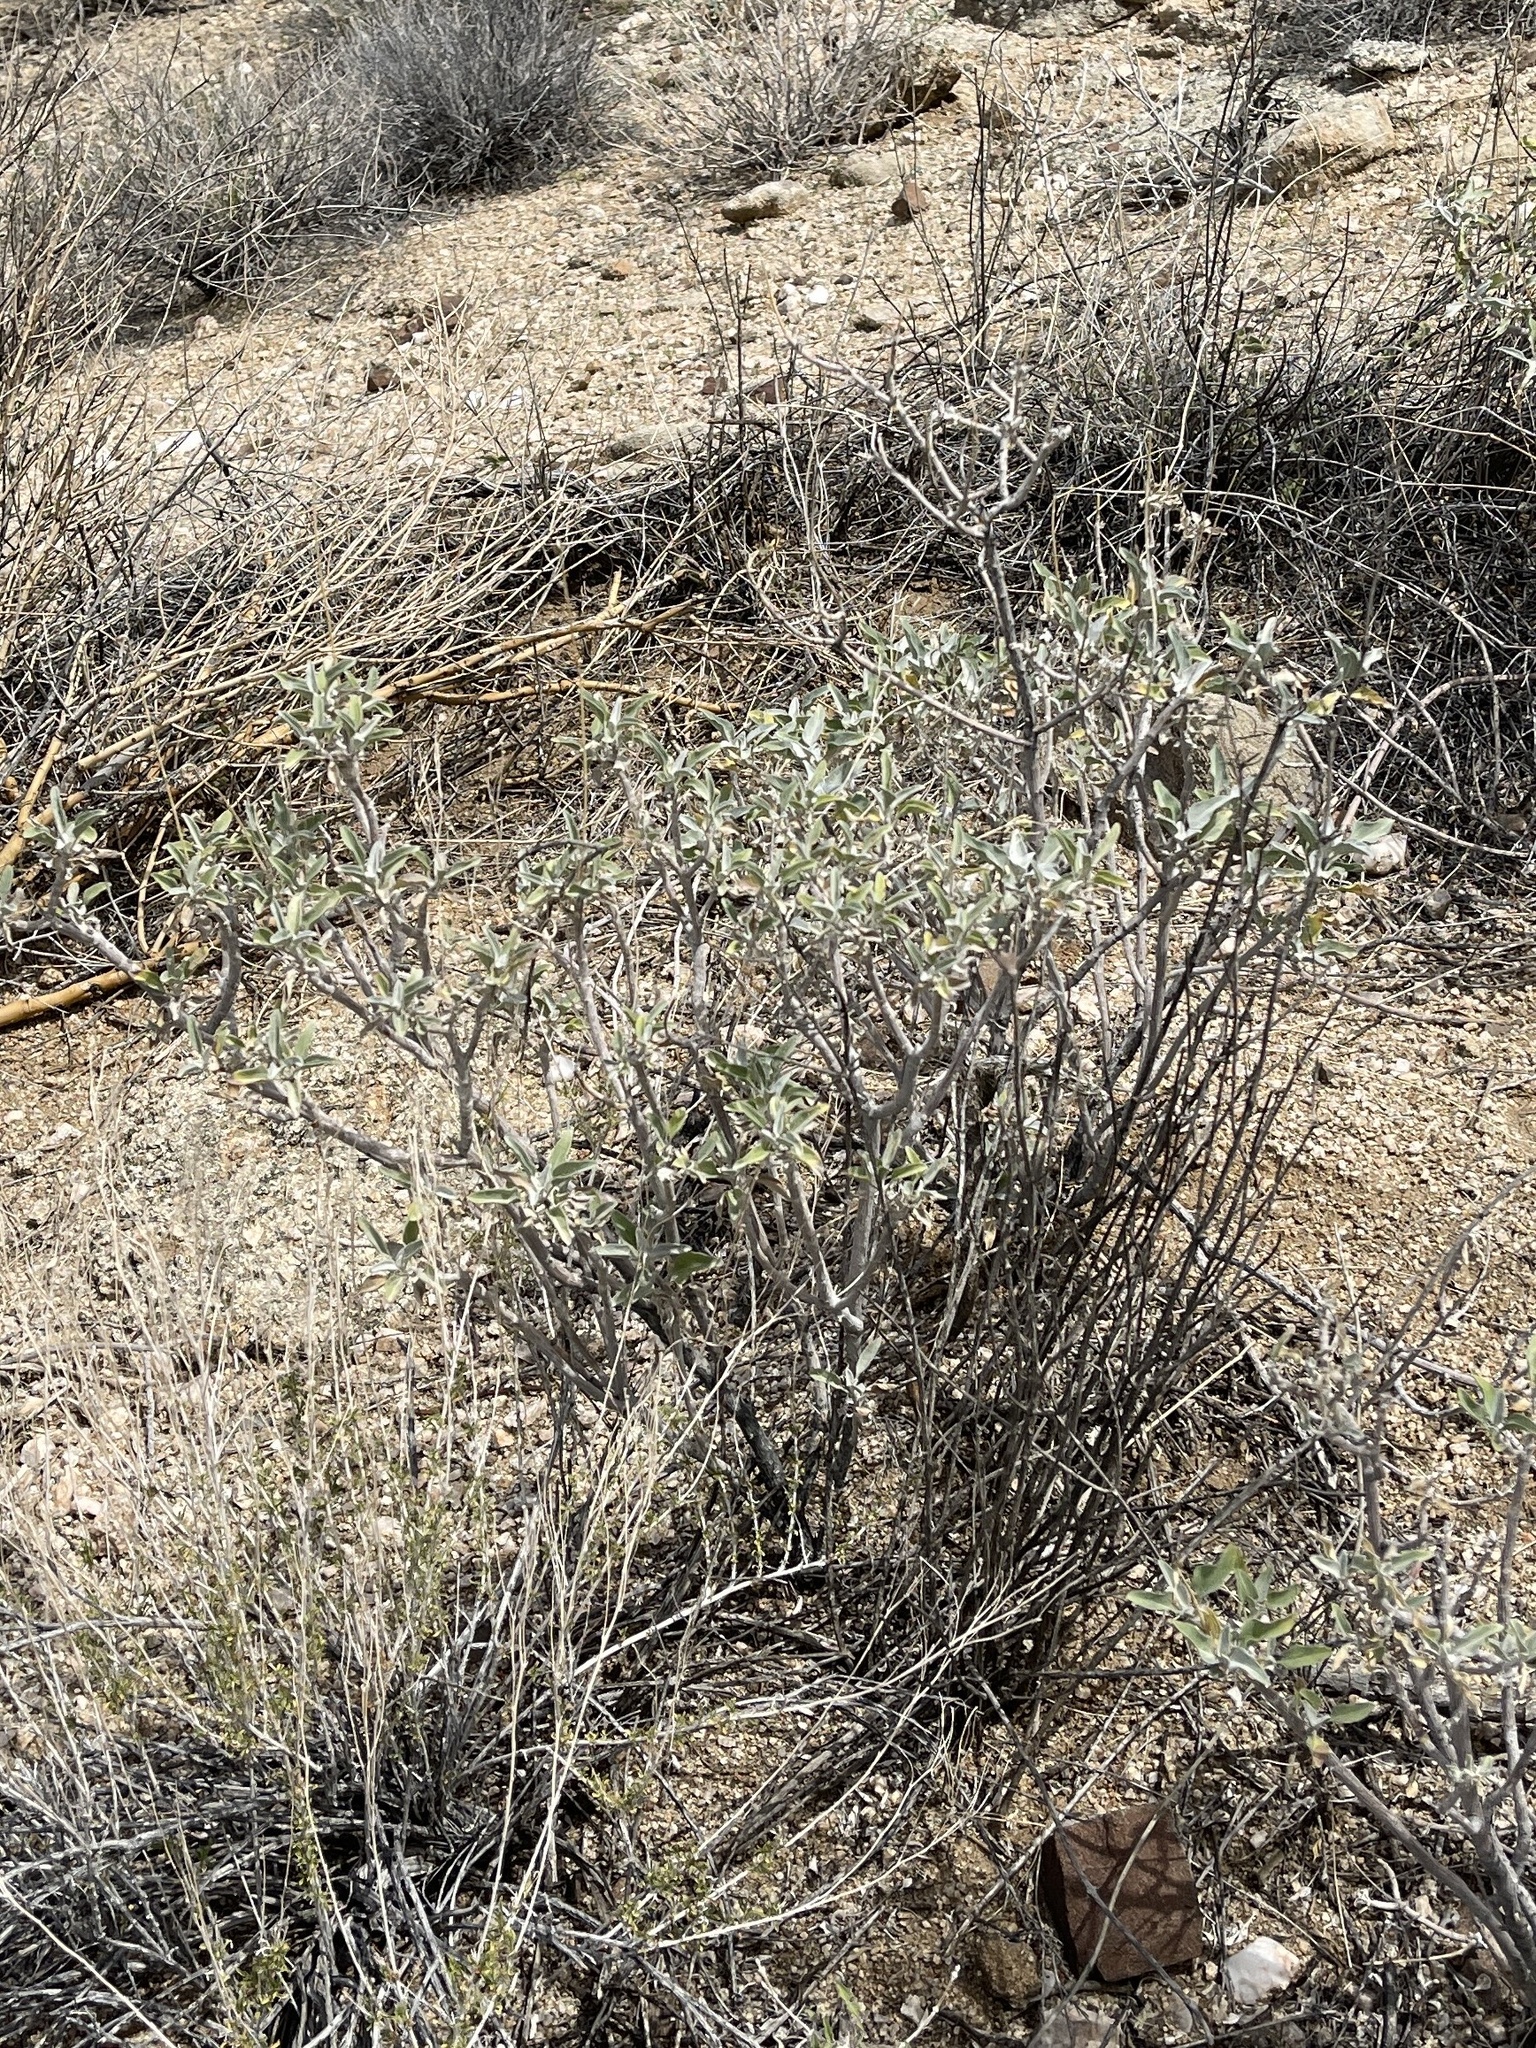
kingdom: Plantae
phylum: Tracheophyta
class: Magnoliopsida
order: Asterales
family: Asteraceae
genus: Encelia
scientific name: Encelia farinosa
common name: Brittlebush
